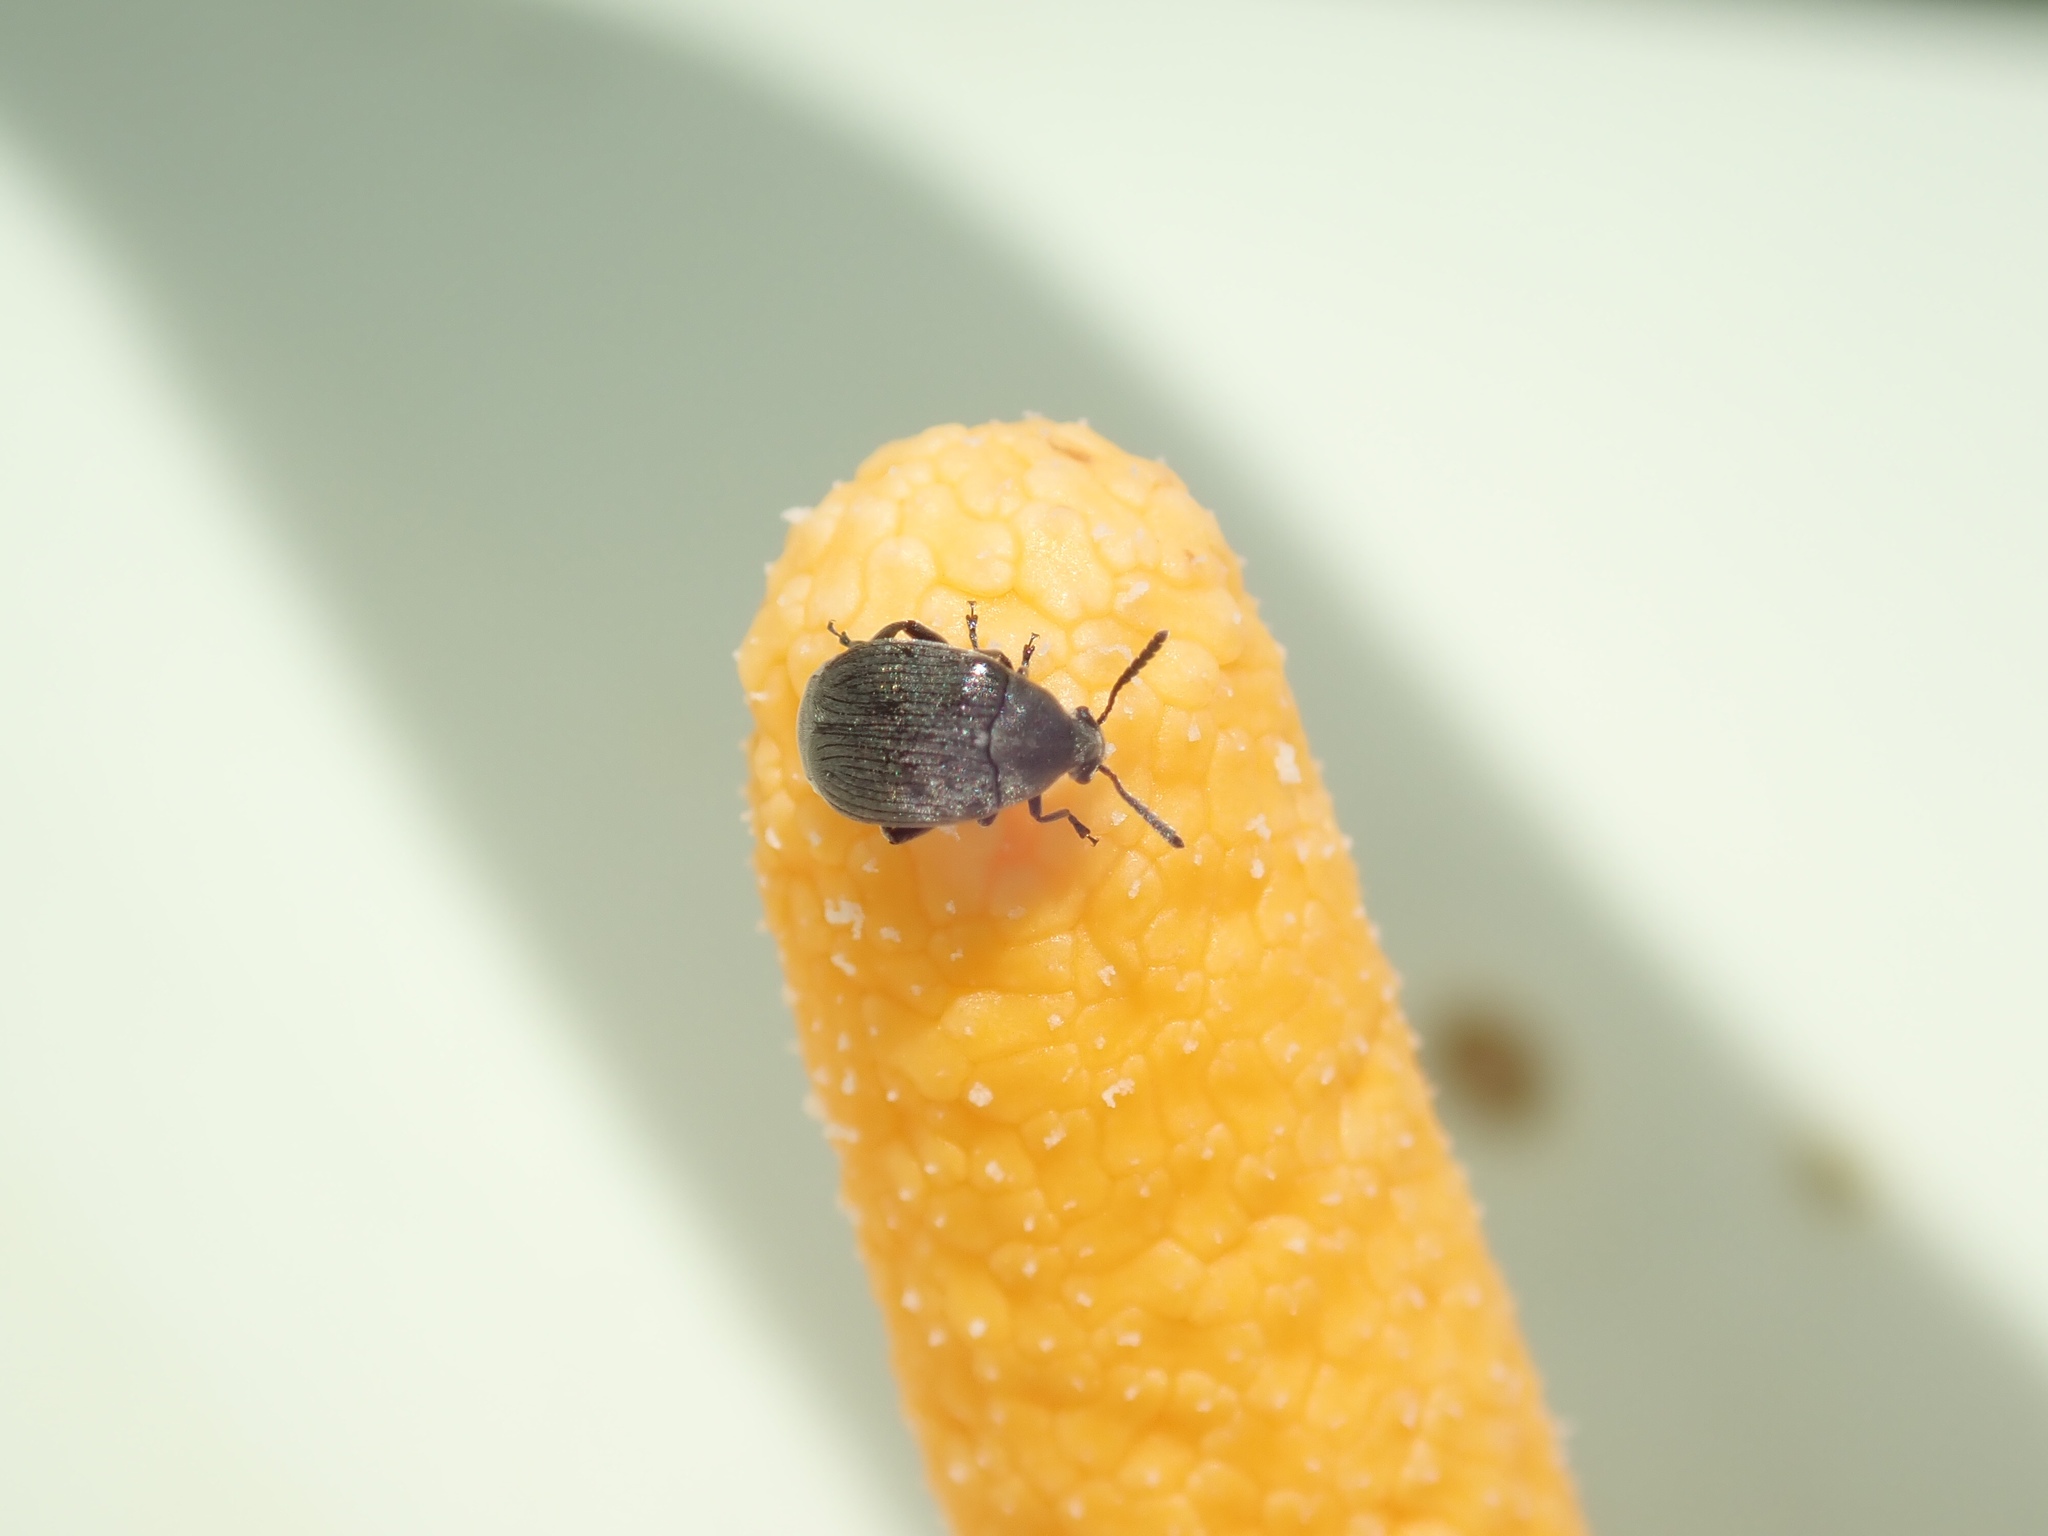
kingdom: Animalia
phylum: Arthropoda
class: Insecta
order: Coleoptera
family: Chrysomelidae
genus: Bruchidius
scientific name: Bruchidius villosus
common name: Scotch broom bruchid
